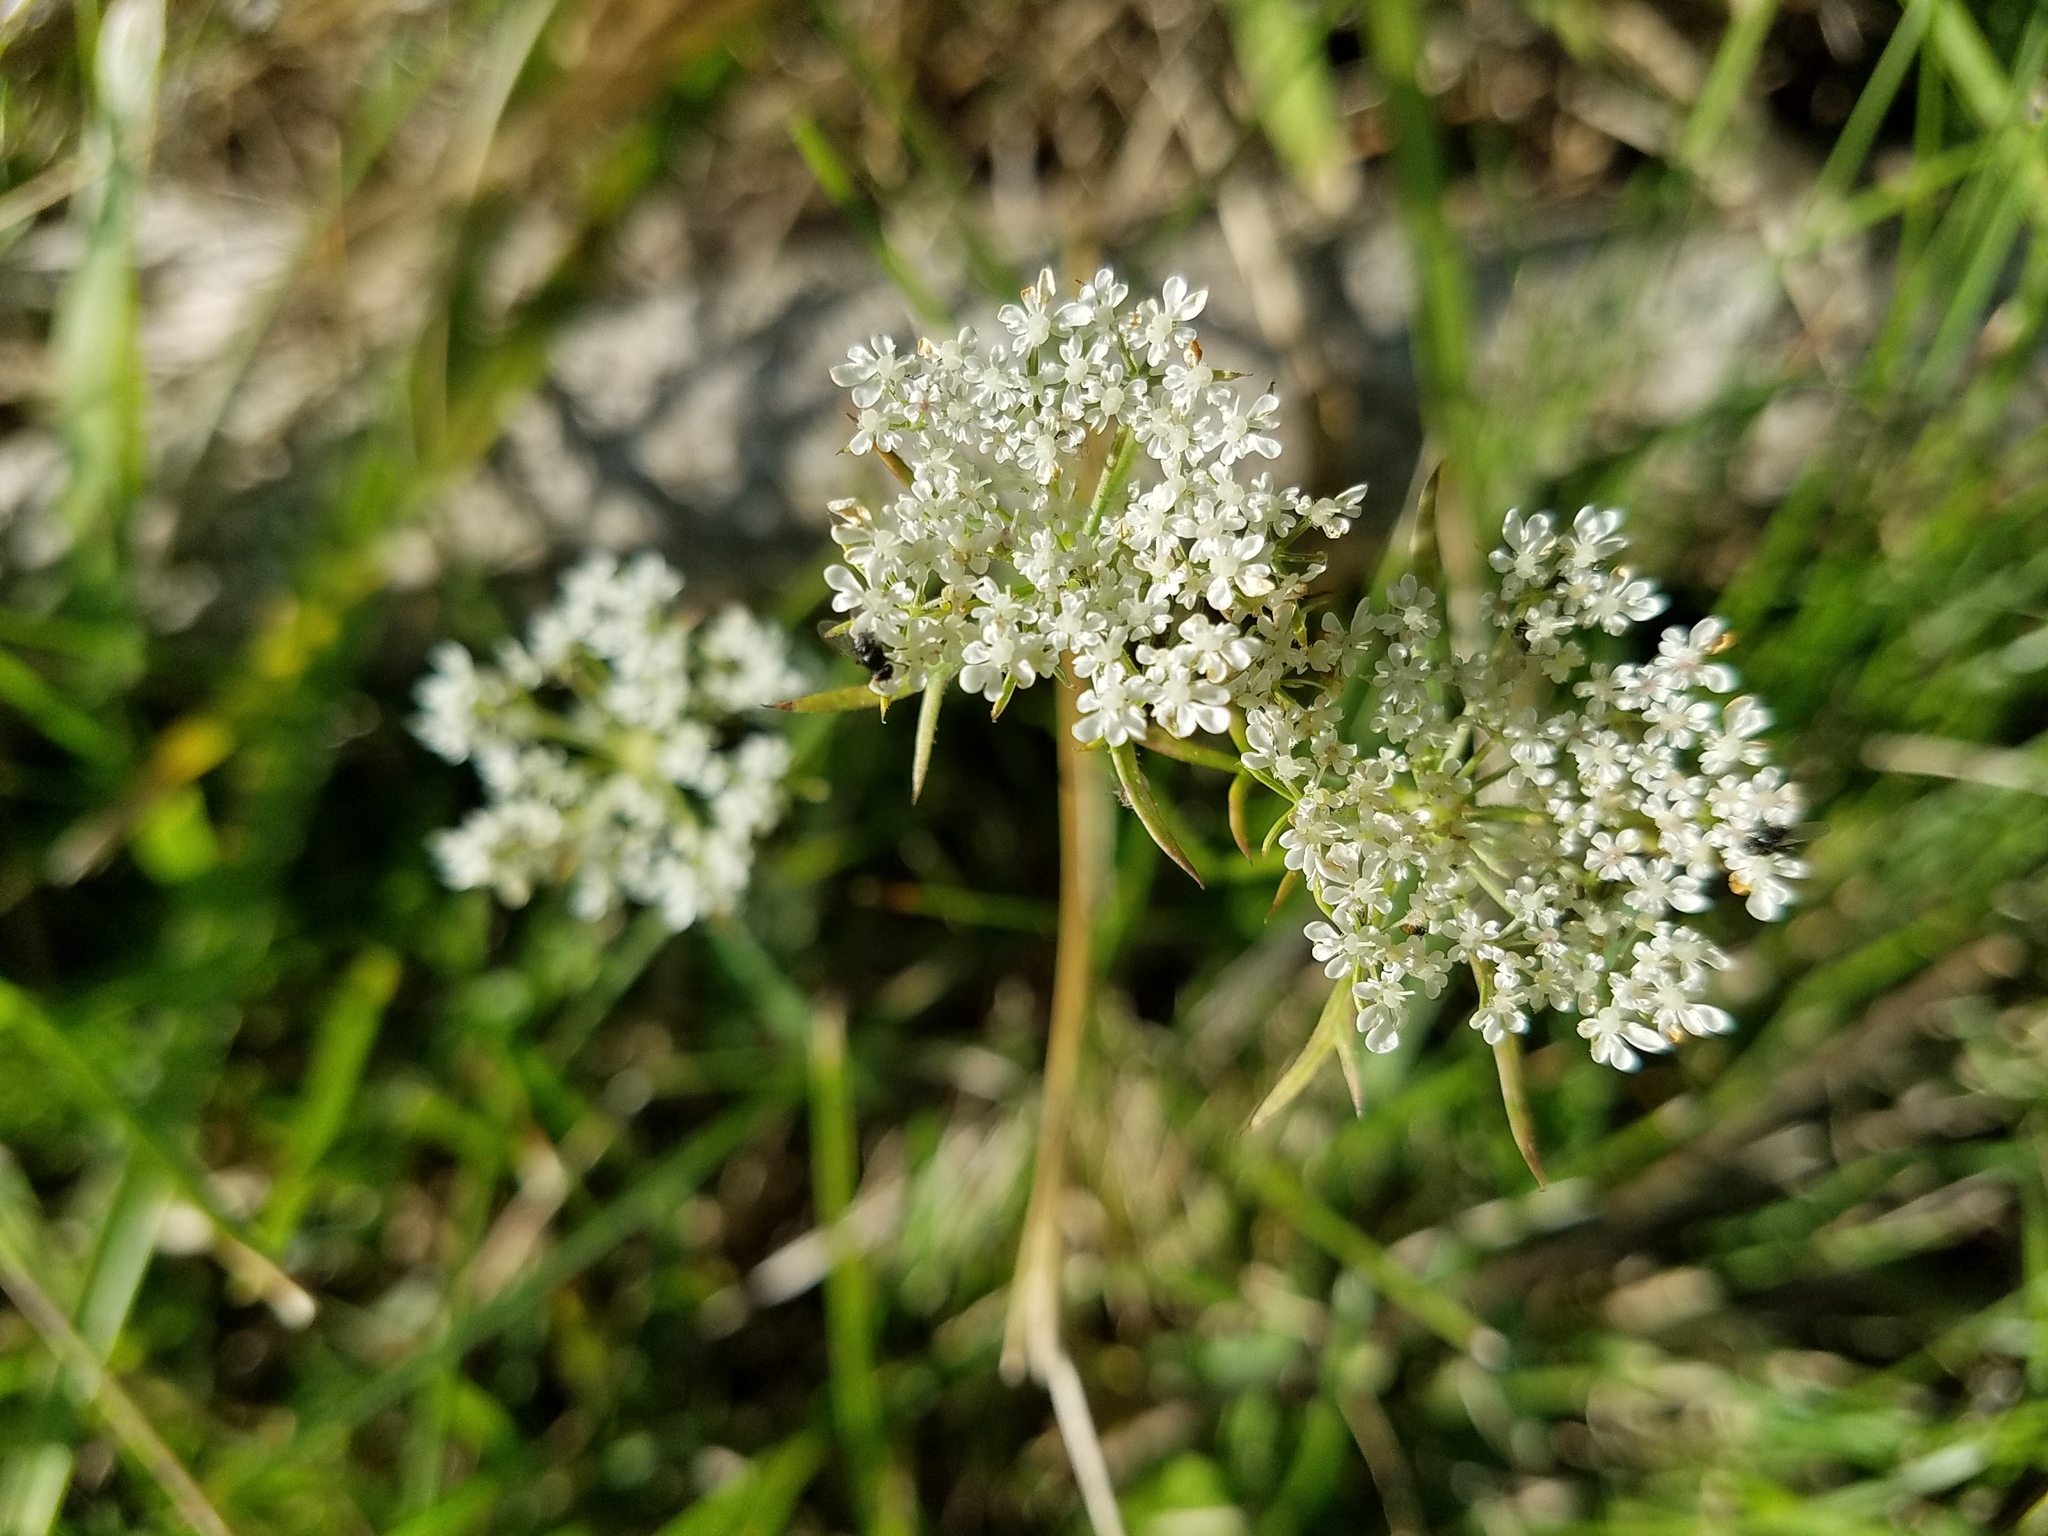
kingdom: Plantae
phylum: Tracheophyta
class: Magnoliopsida
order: Apiales
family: Apiaceae
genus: Daucus
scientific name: Daucus carota
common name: Wild carrot
